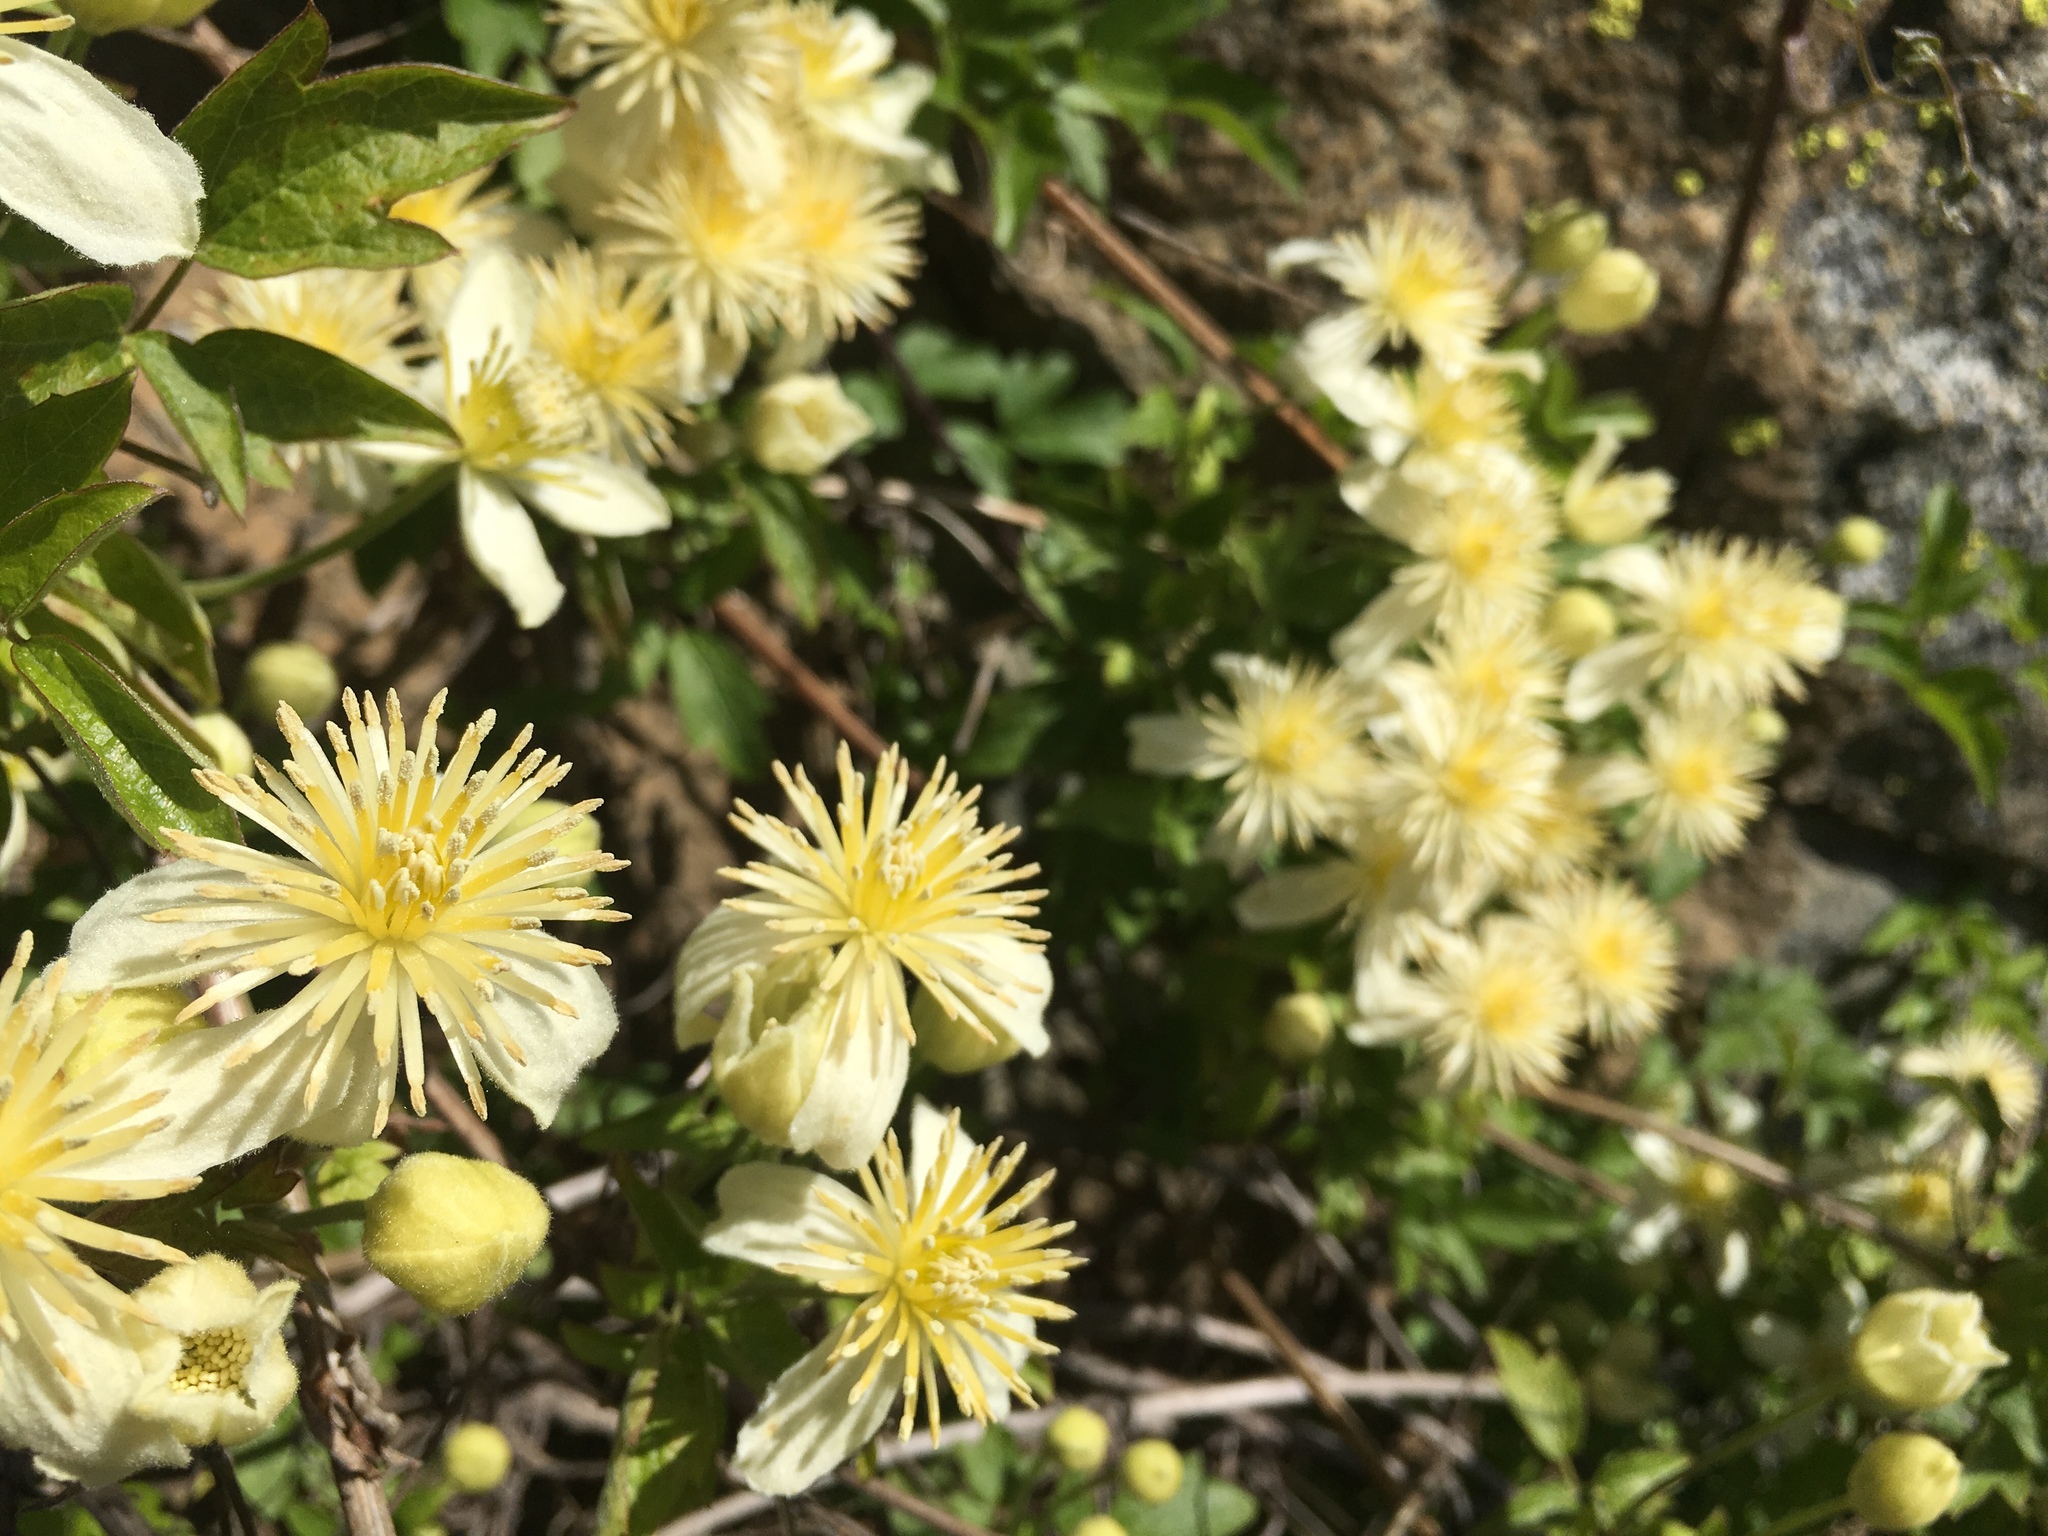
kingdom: Plantae
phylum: Tracheophyta
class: Magnoliopsida
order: Ranunculales
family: Ranunculaceae
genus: Clematis
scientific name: Clematis lasiantha
